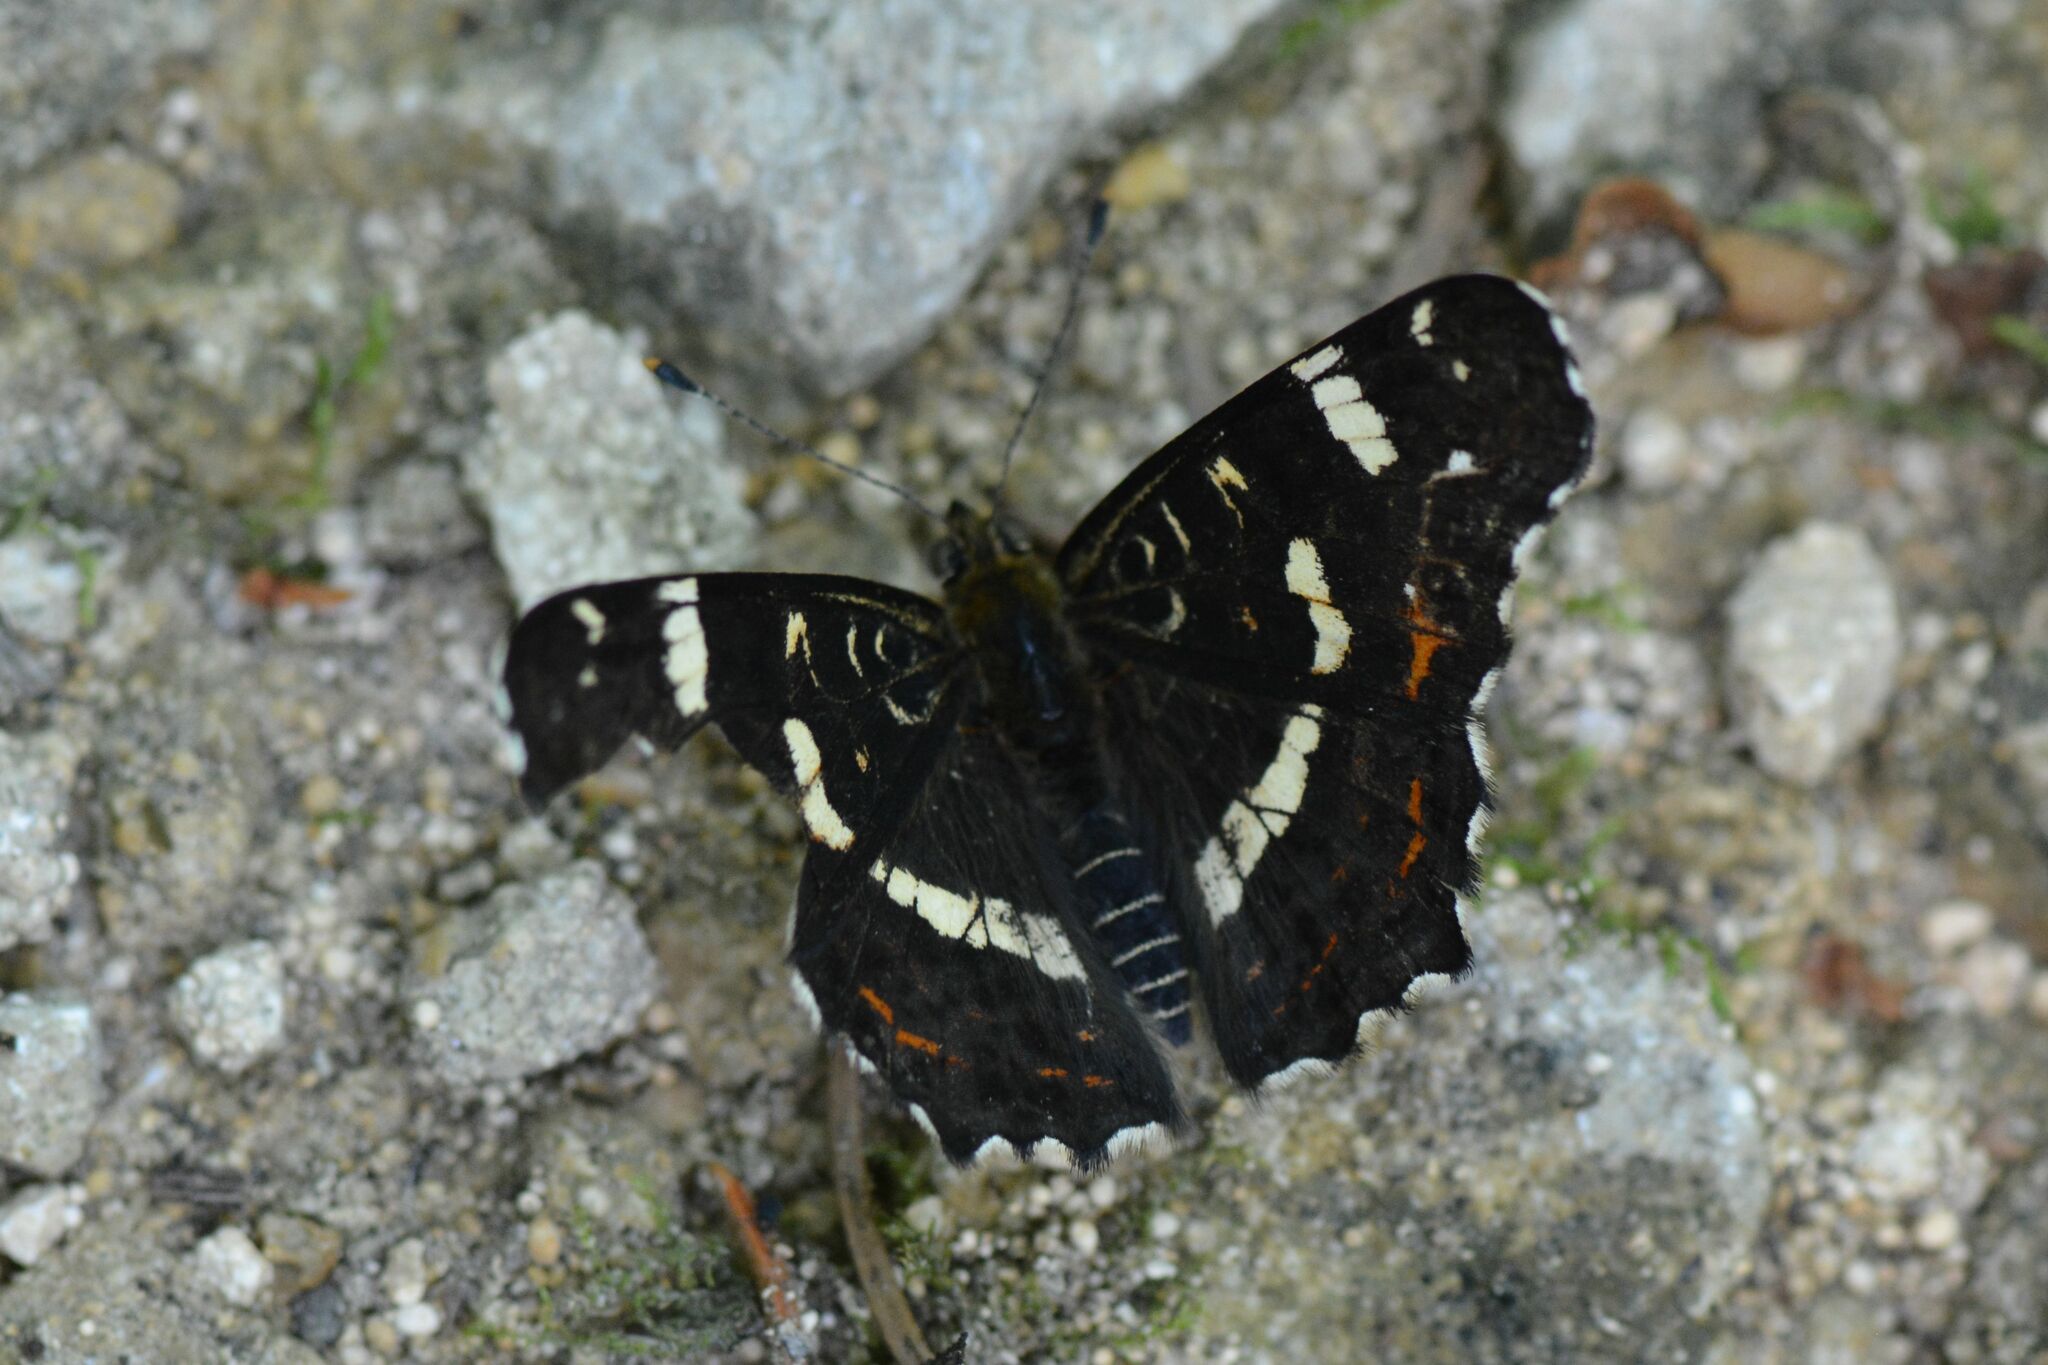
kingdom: Animalia
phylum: Arthropoda
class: Insecta
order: Lepidoptera
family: Nymphalidae
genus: Araschnia
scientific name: Araschnia levana
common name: Map butterfly
